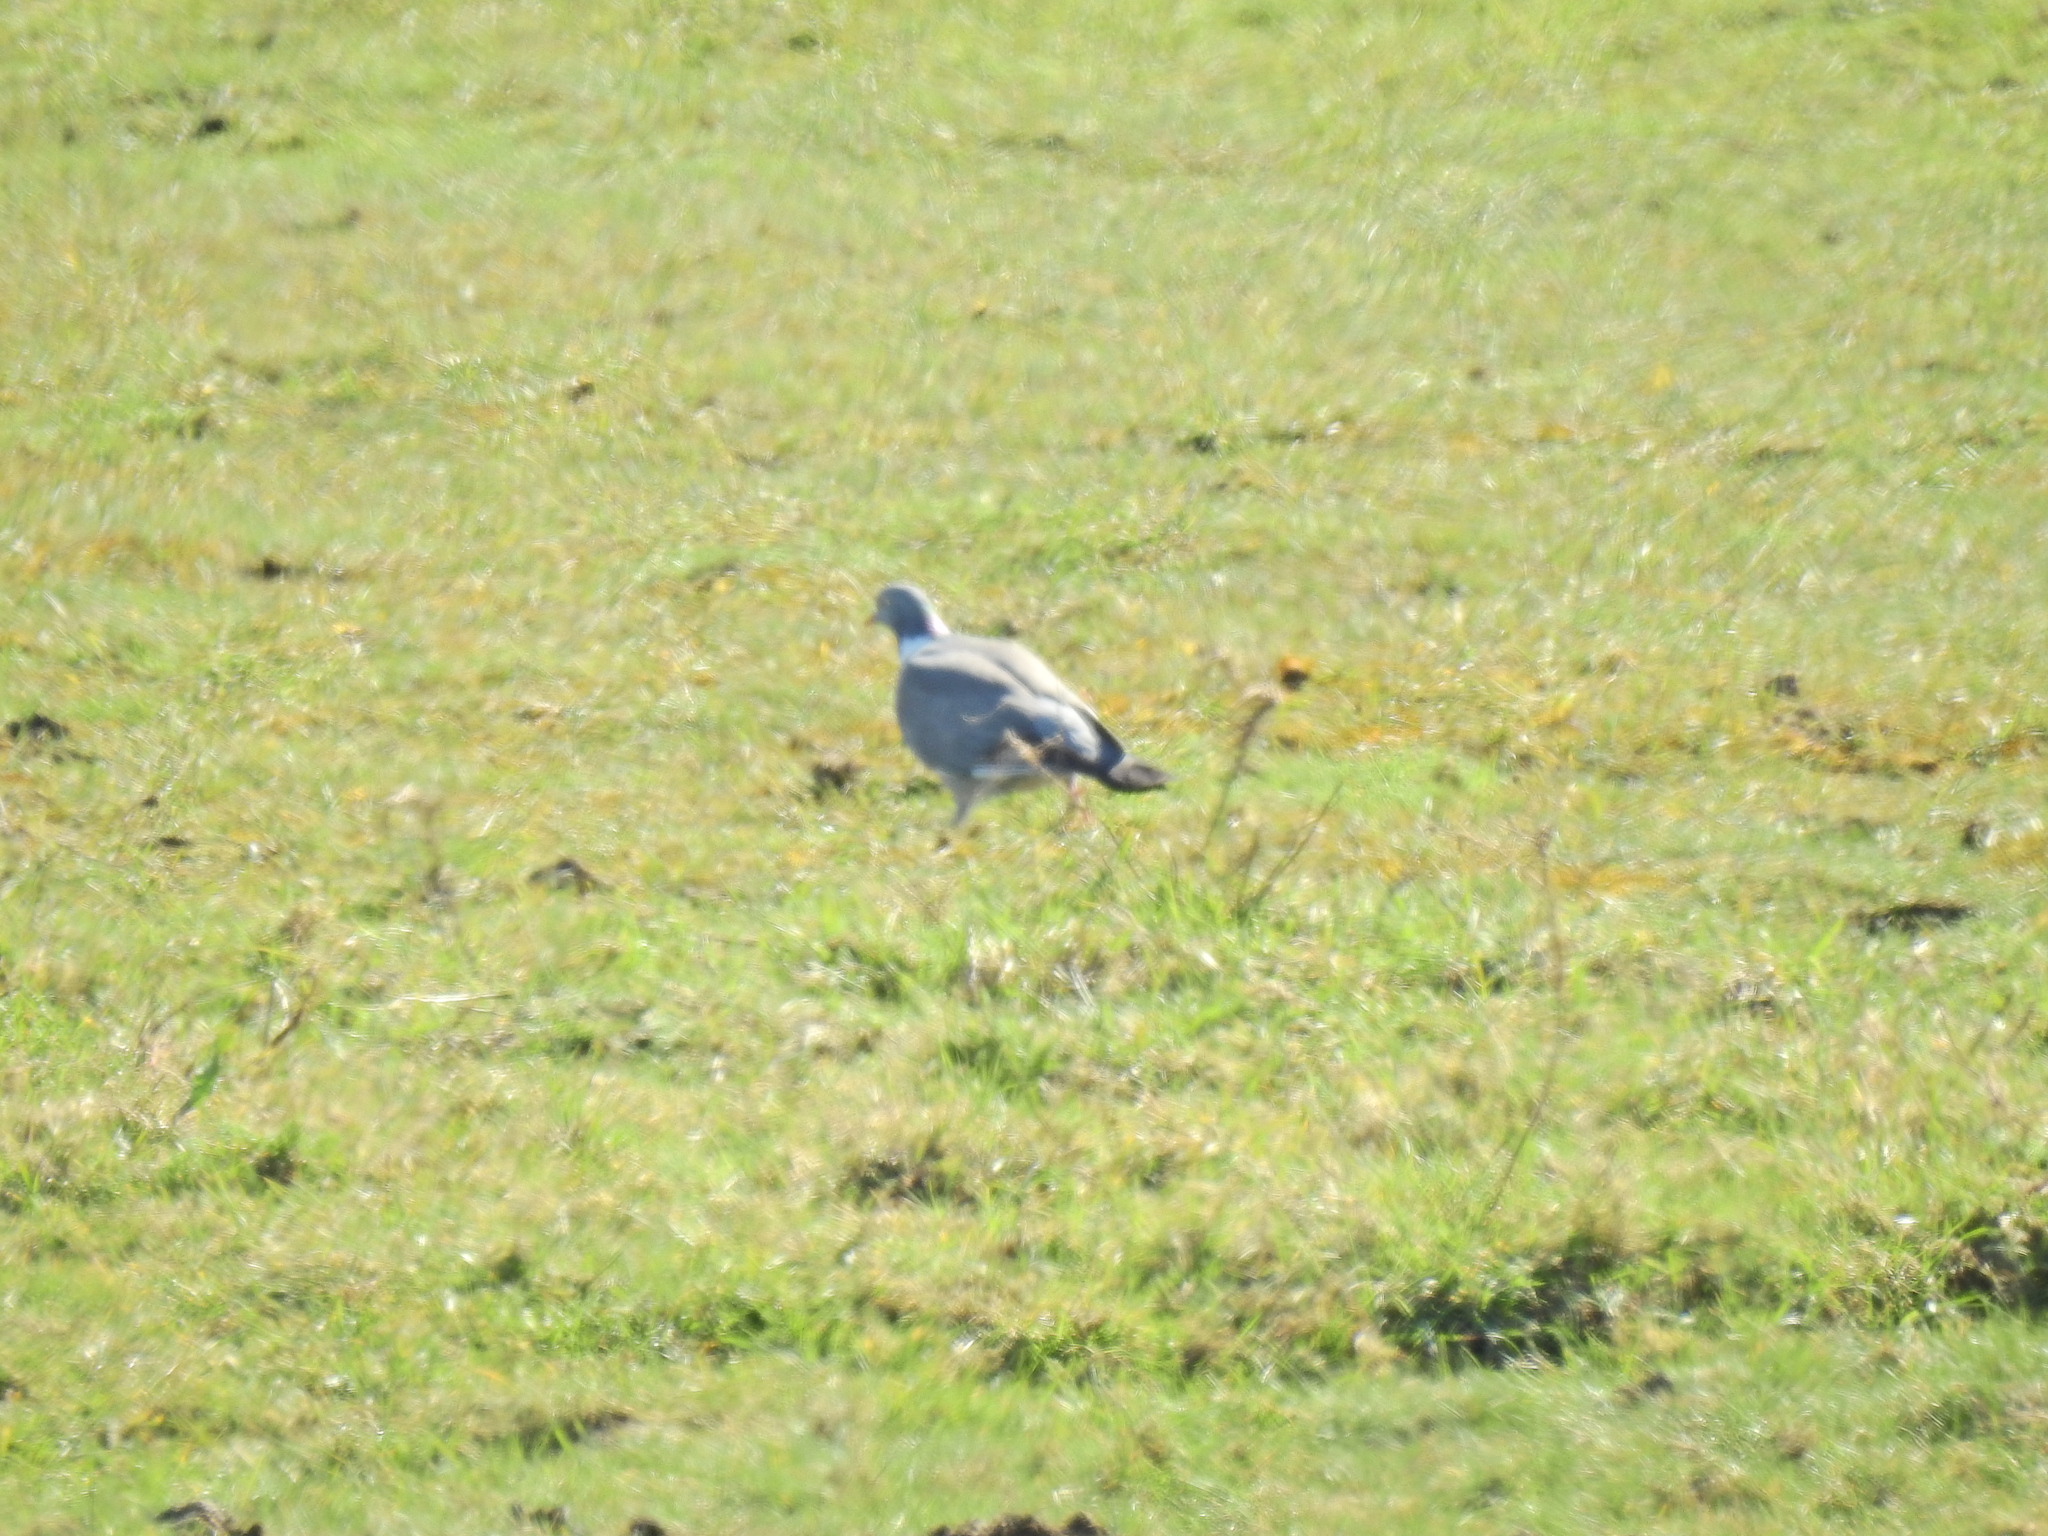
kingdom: Animalia
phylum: Chordata
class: Aves
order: Columbiformes
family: Columbidae
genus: Columba
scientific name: Columba palumbus
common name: Common wood pigeon
